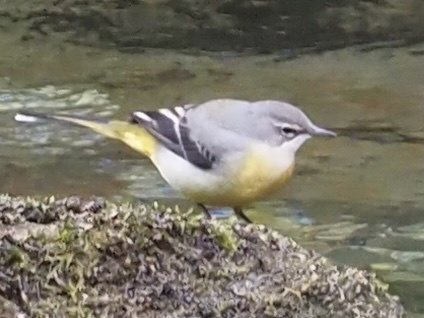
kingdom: Animalia
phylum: Chordata
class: Aves
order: Passeriformes
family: Motacillidae
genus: Motacilla
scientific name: Motacilla cinerea
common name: Grey wagtail
